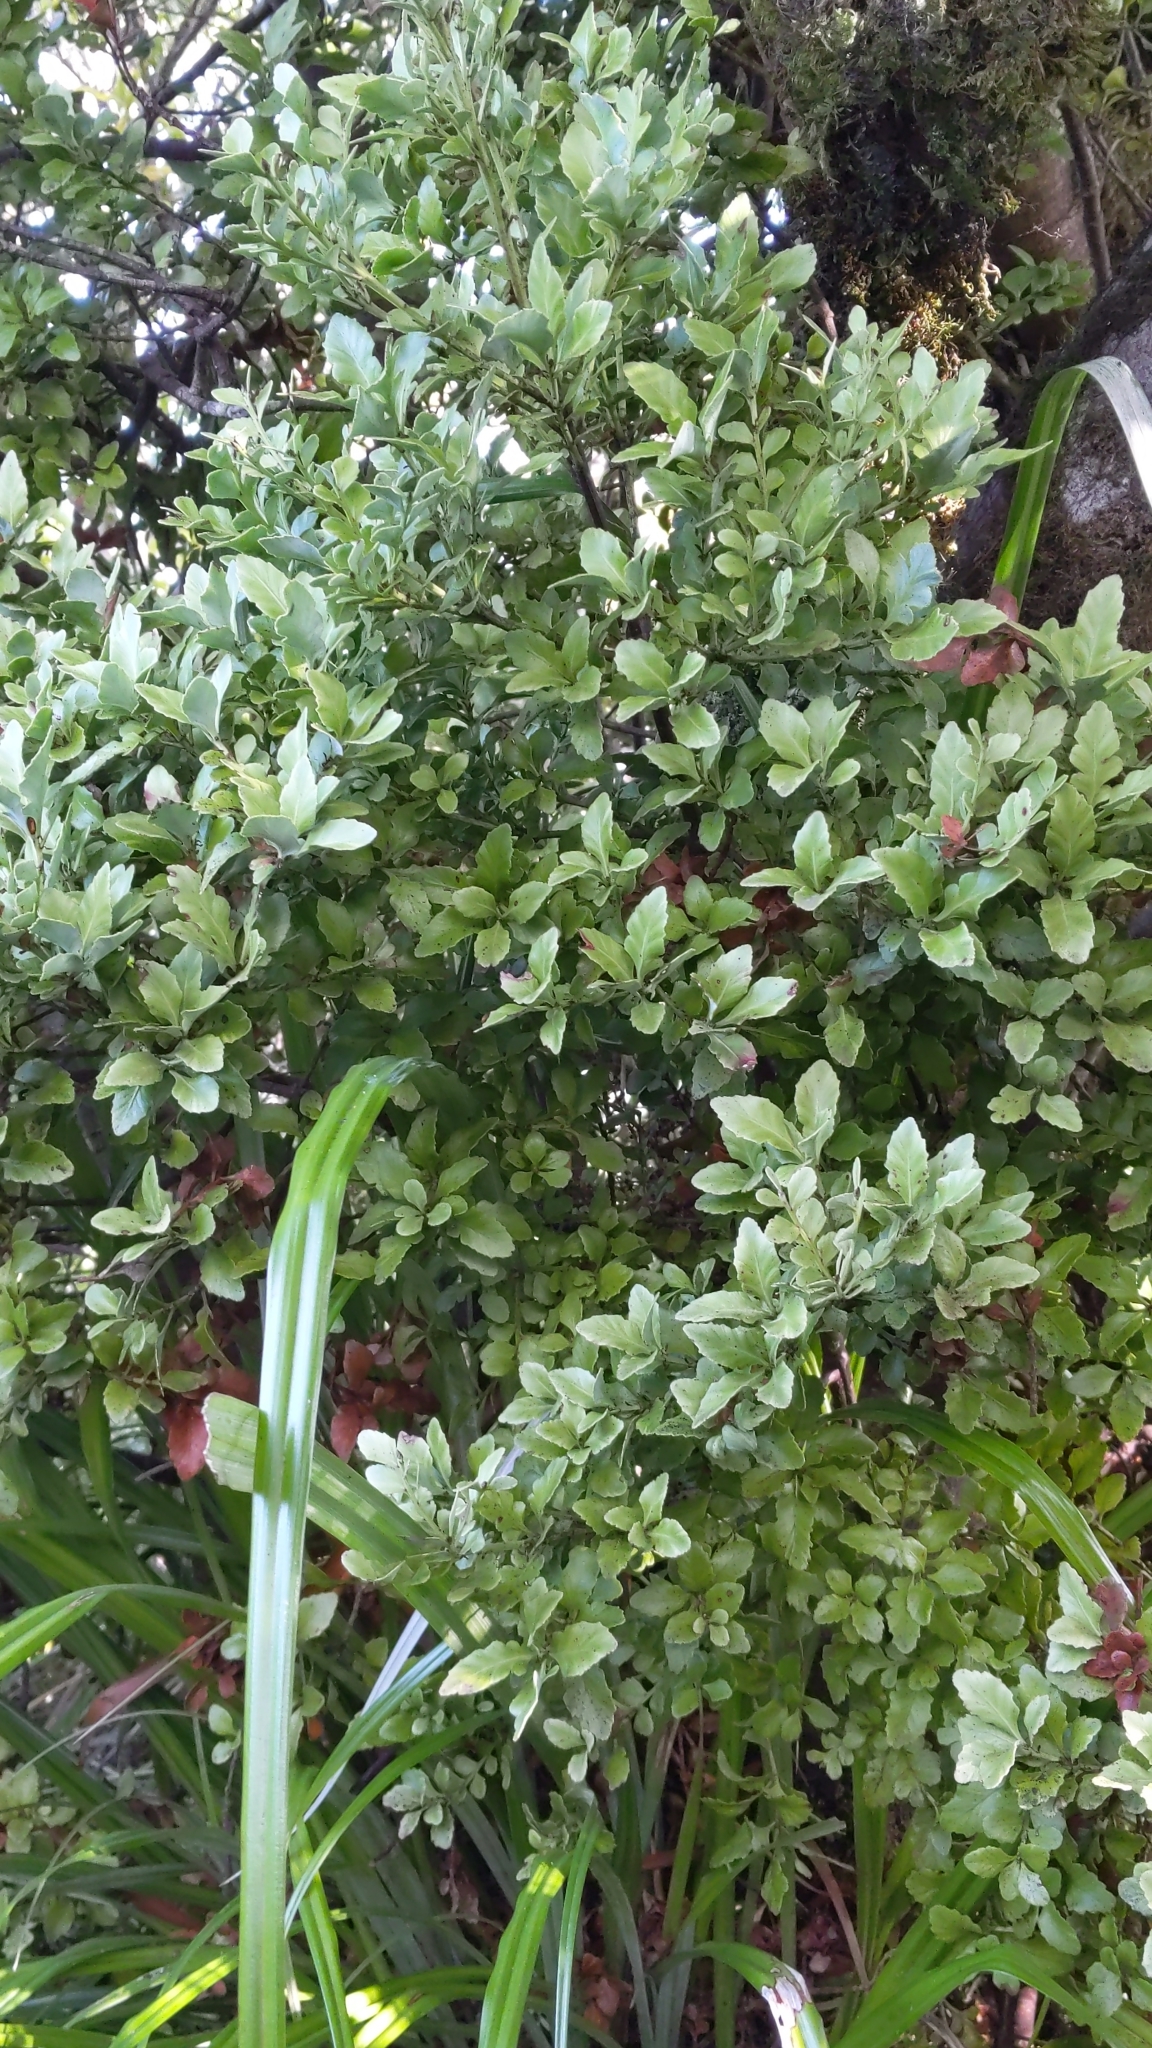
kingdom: Plantae
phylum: Tracheophyta
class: Pinopsida
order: Pinales
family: Phyllocladaceae
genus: Phyllocladus
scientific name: Phyllocladus trichomanoides
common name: Celery pine
